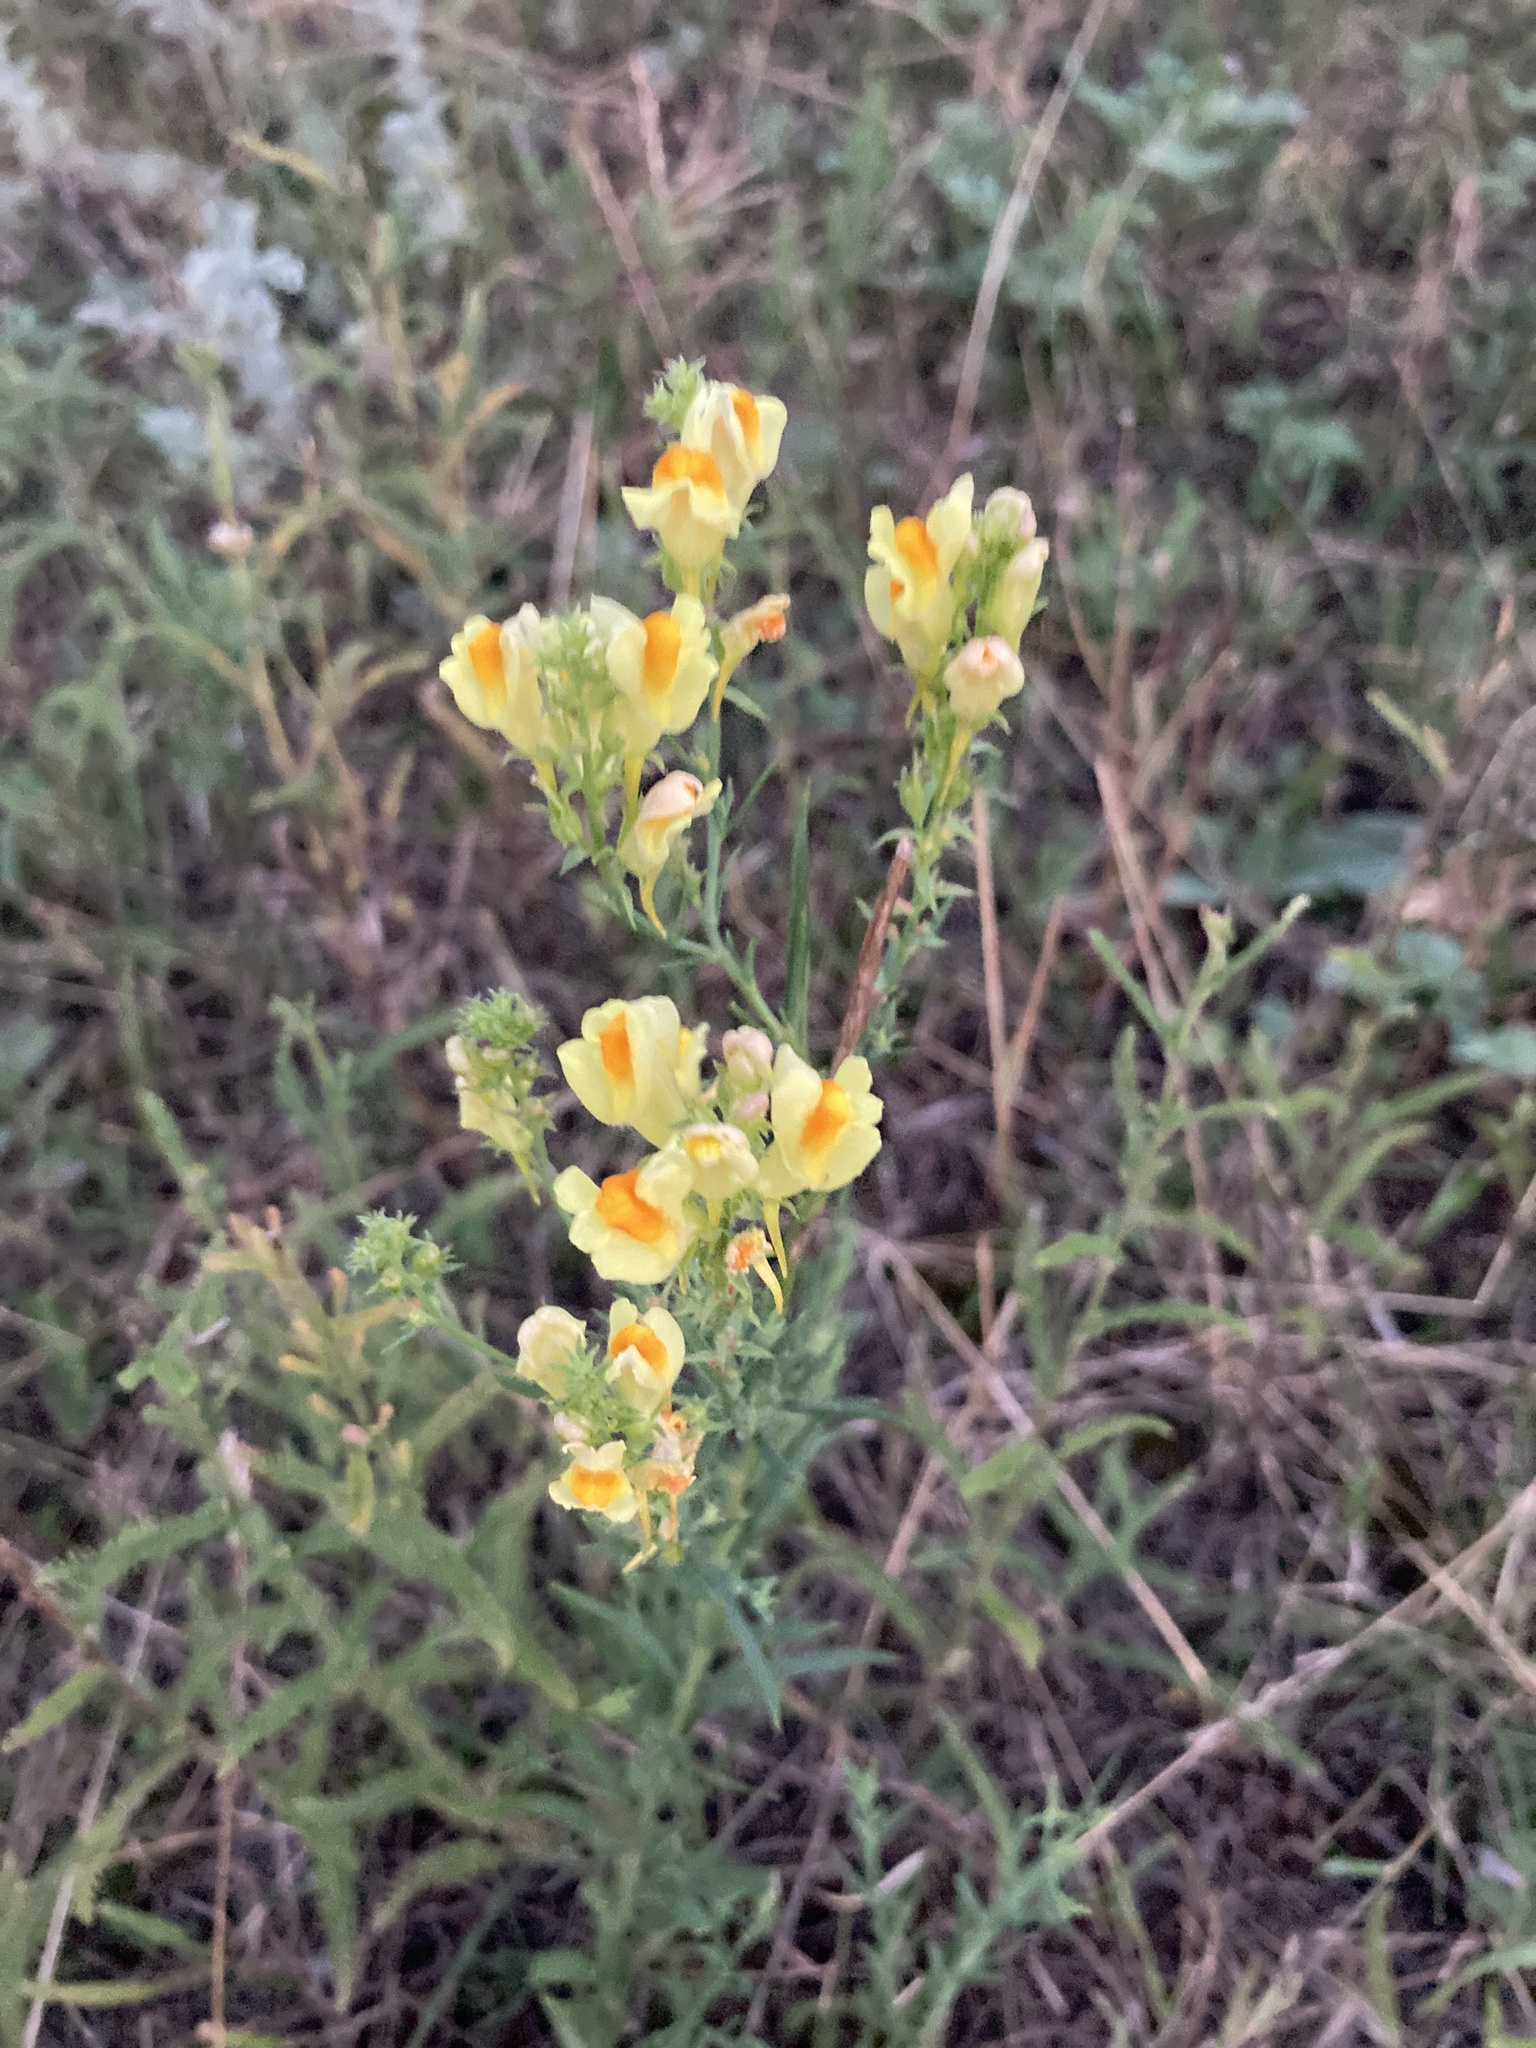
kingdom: Plantae
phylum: Tracheophyta
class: Magnoliopsida
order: Lamiales
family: Plantaginaceae
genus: Linaria
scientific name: Linaria vulgaris
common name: Butter and eggs
